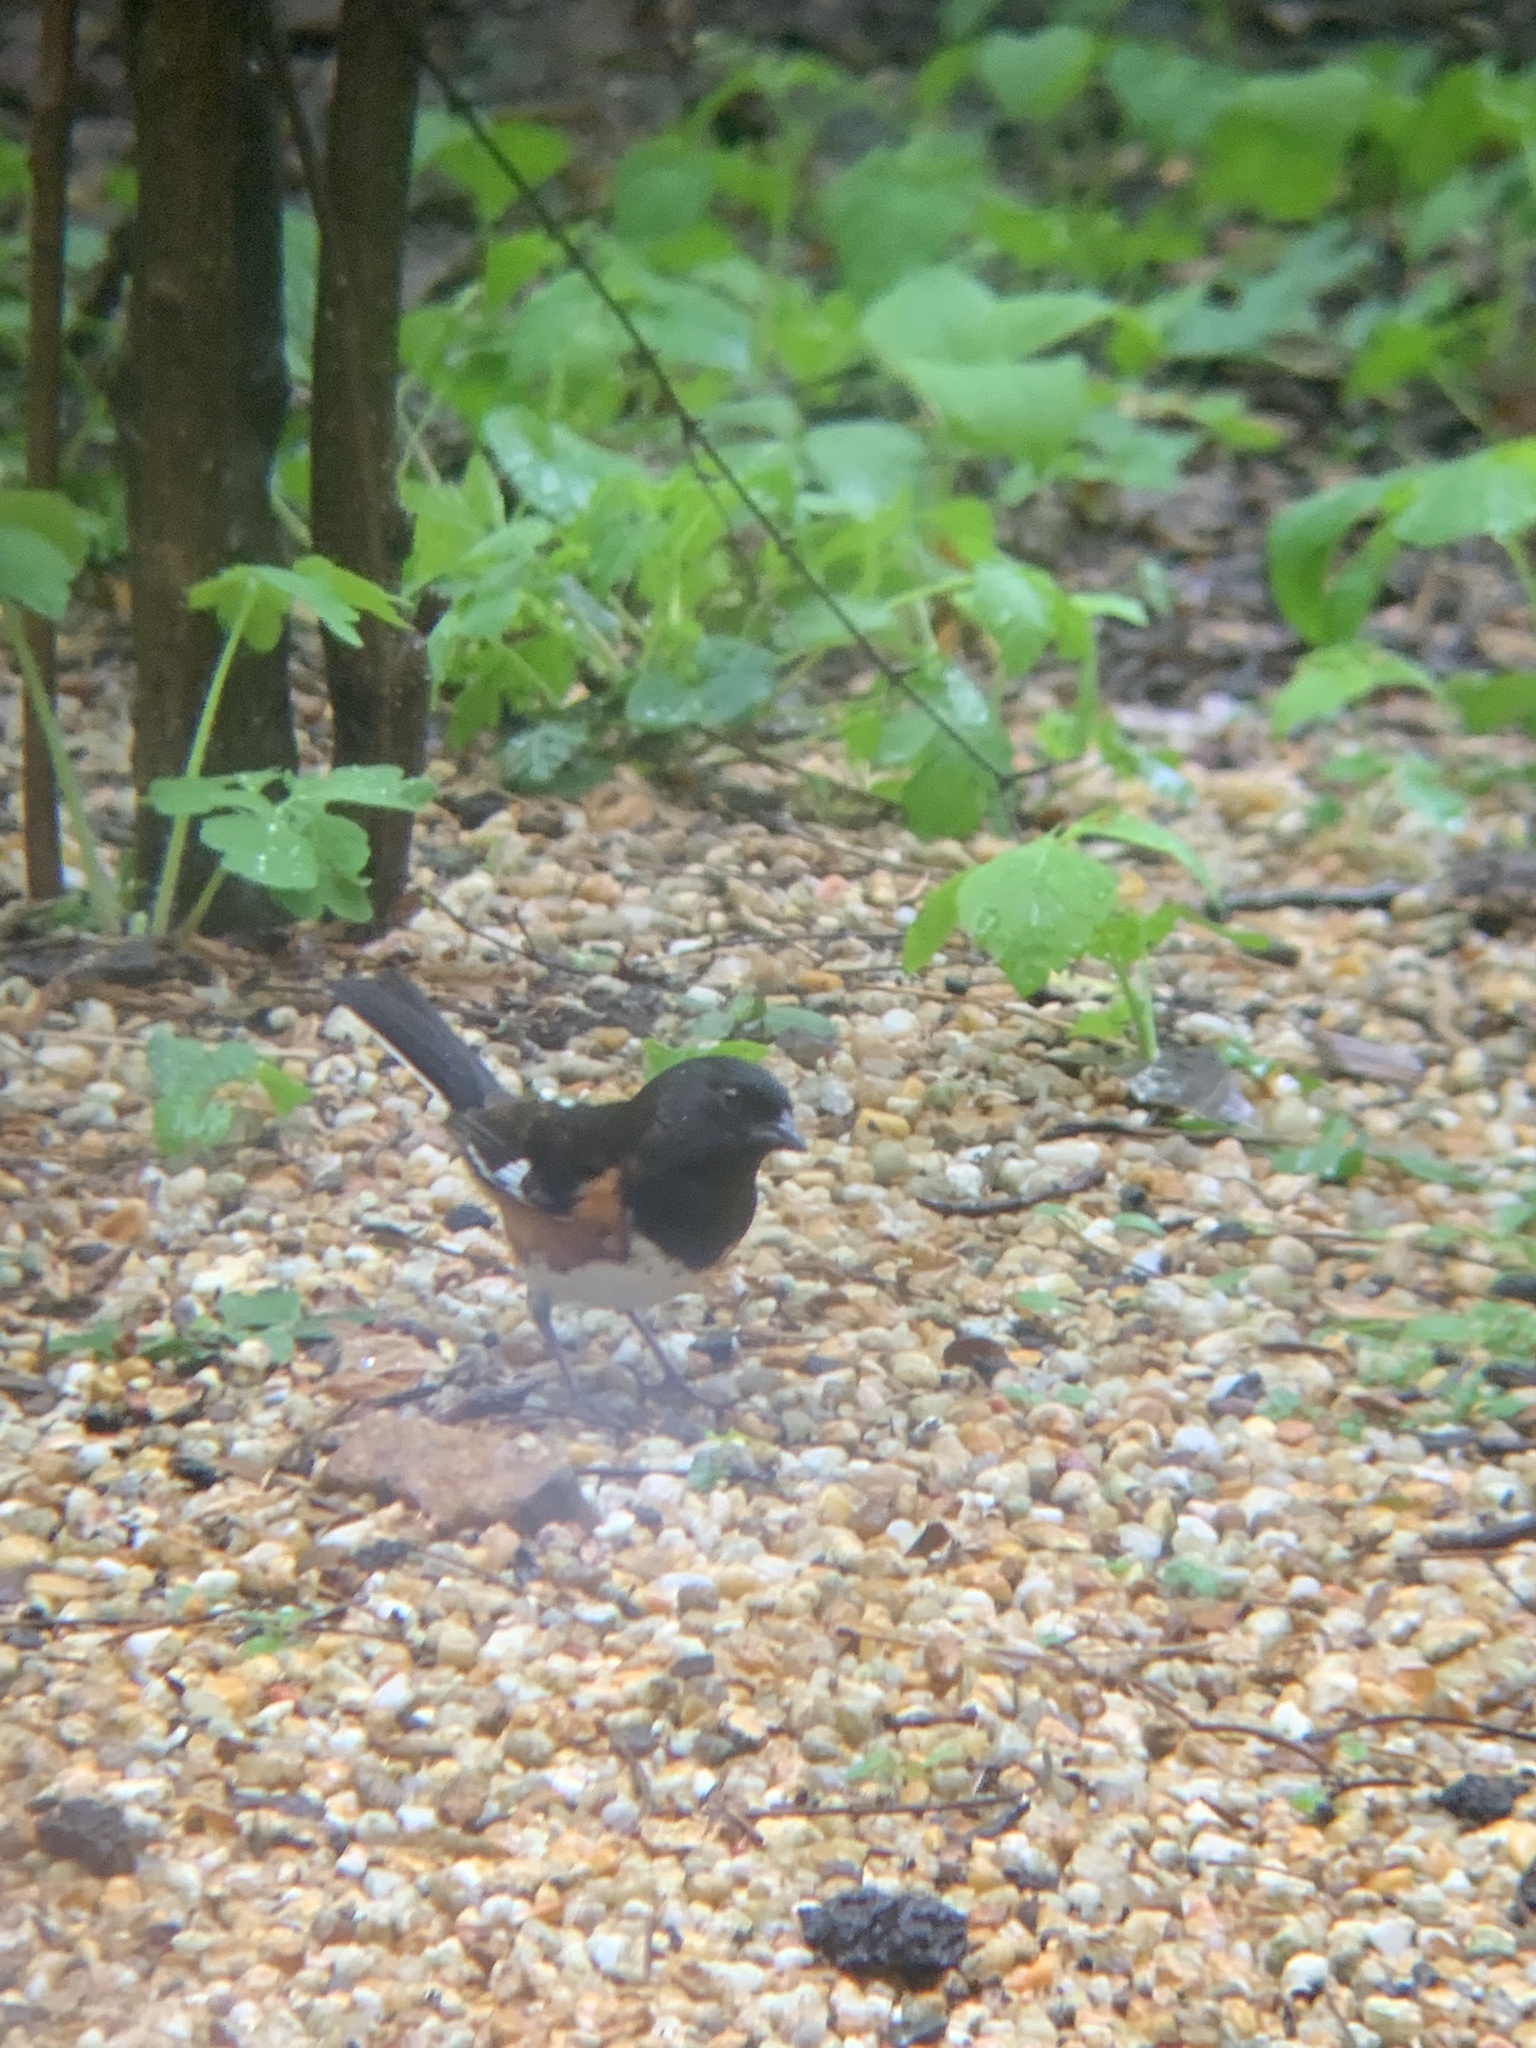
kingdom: Animalia
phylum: Chordata
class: Aves
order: Passeriformes
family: Passerellidae
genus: Pipilo
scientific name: Pipilo erythrophthalmus
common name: Eastern towhee
